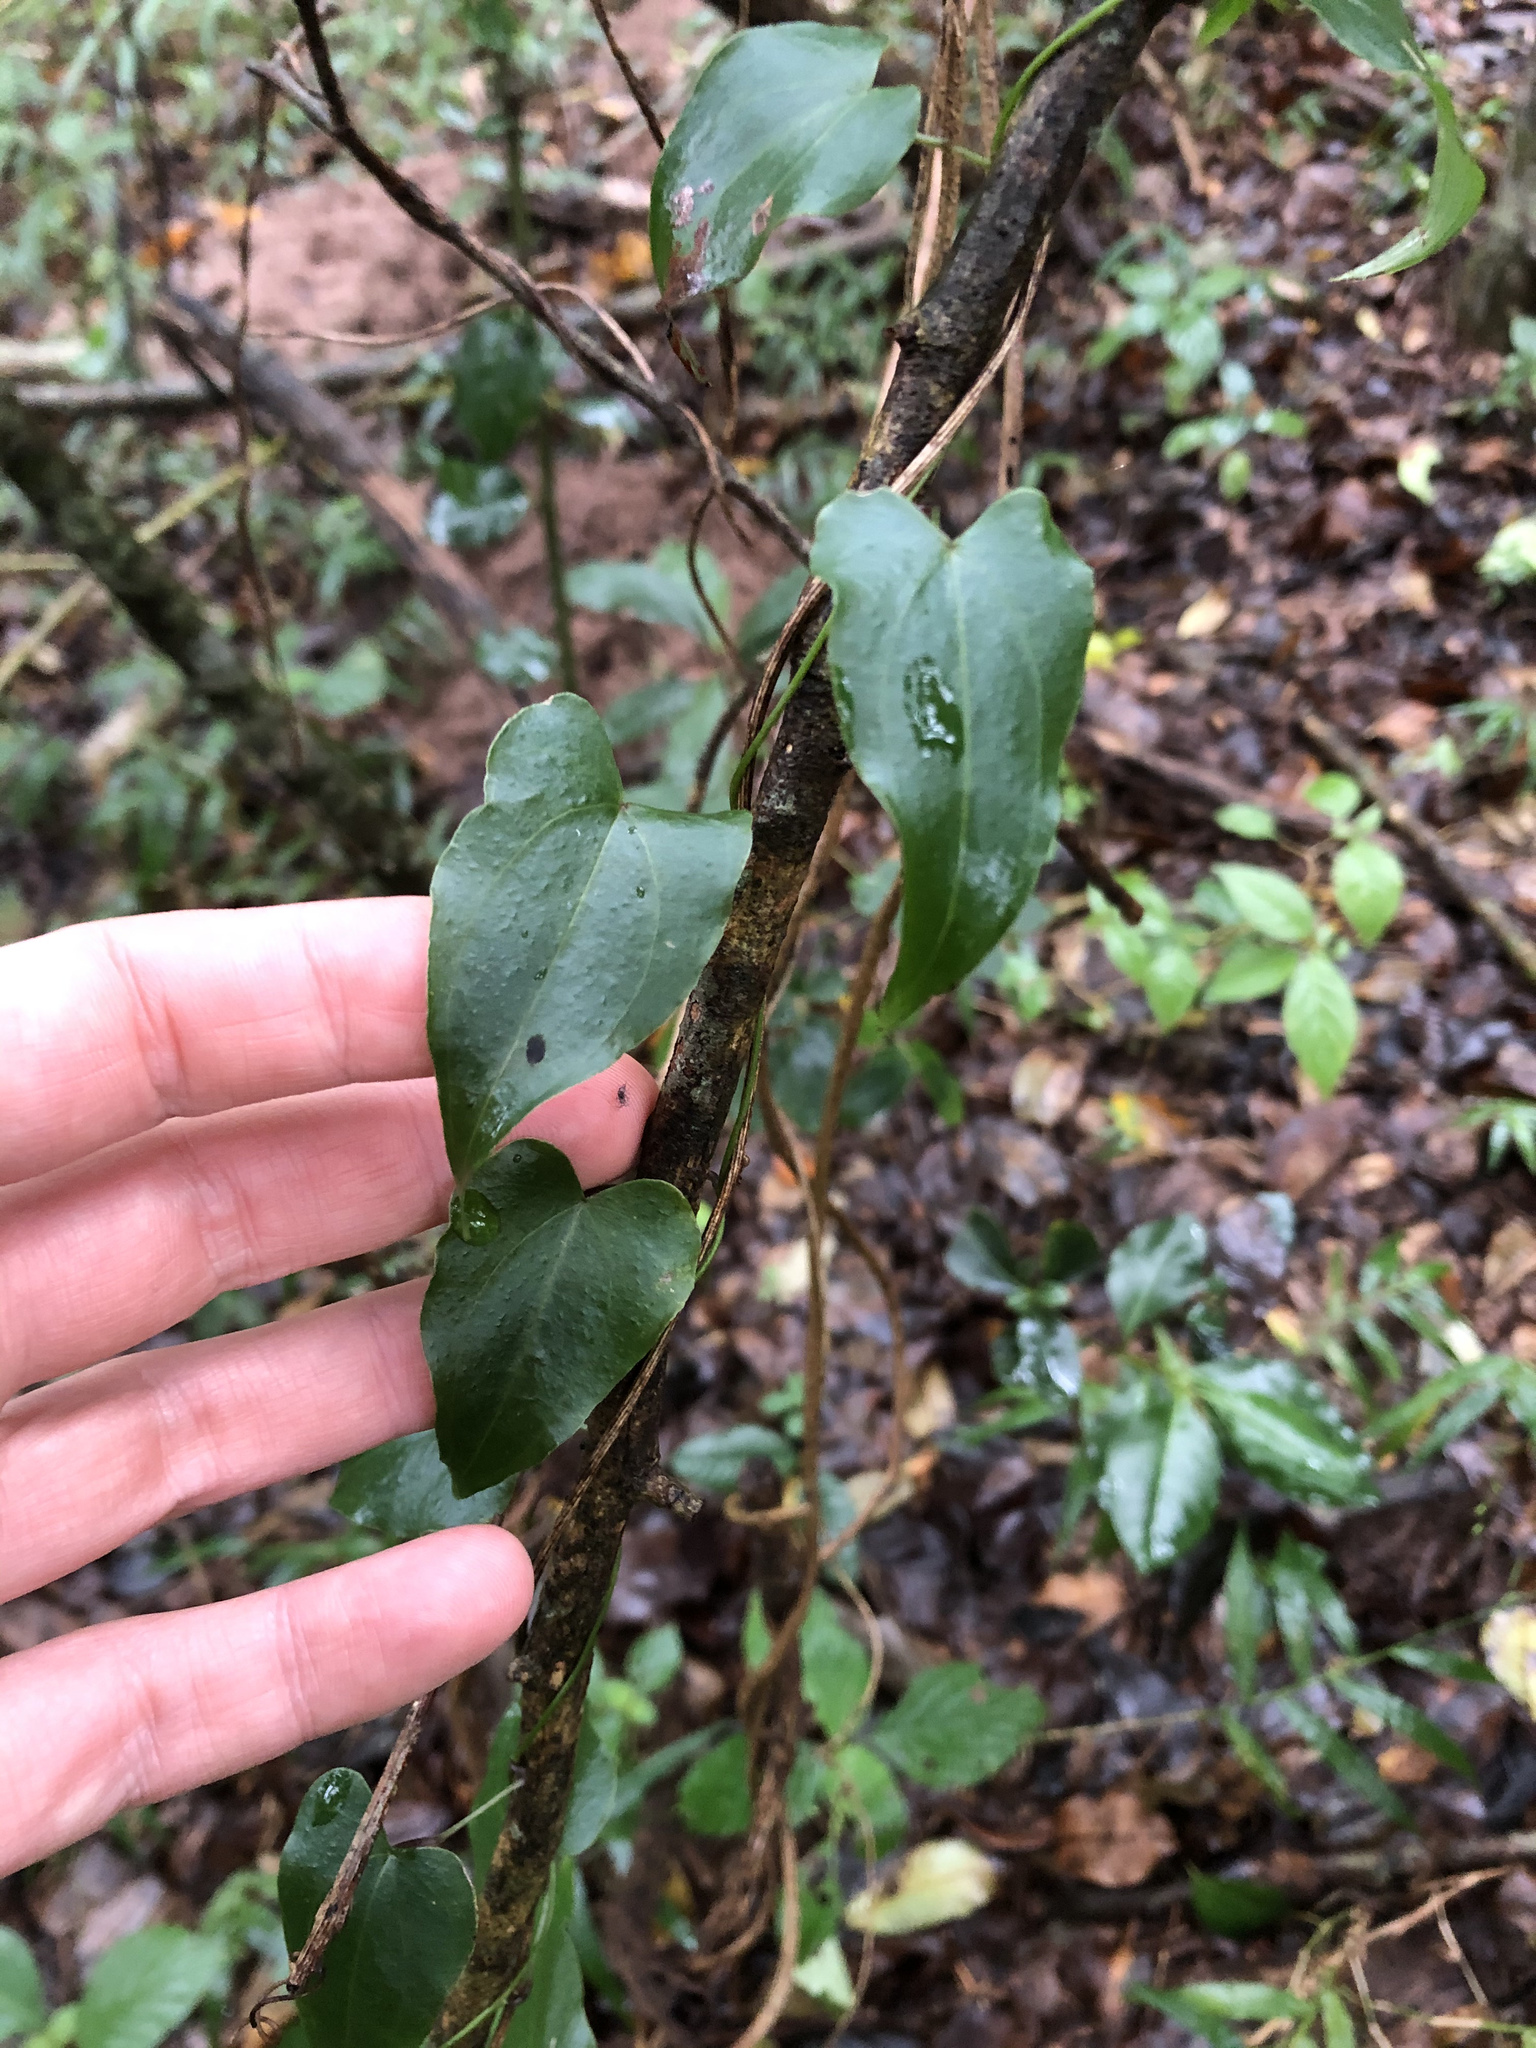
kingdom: Plantae
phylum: Tracheophyta
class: Liliopsida
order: Dioscoreales
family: Dioscoreaceae
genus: Dioscorea
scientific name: Dioscorea cotinifolia
